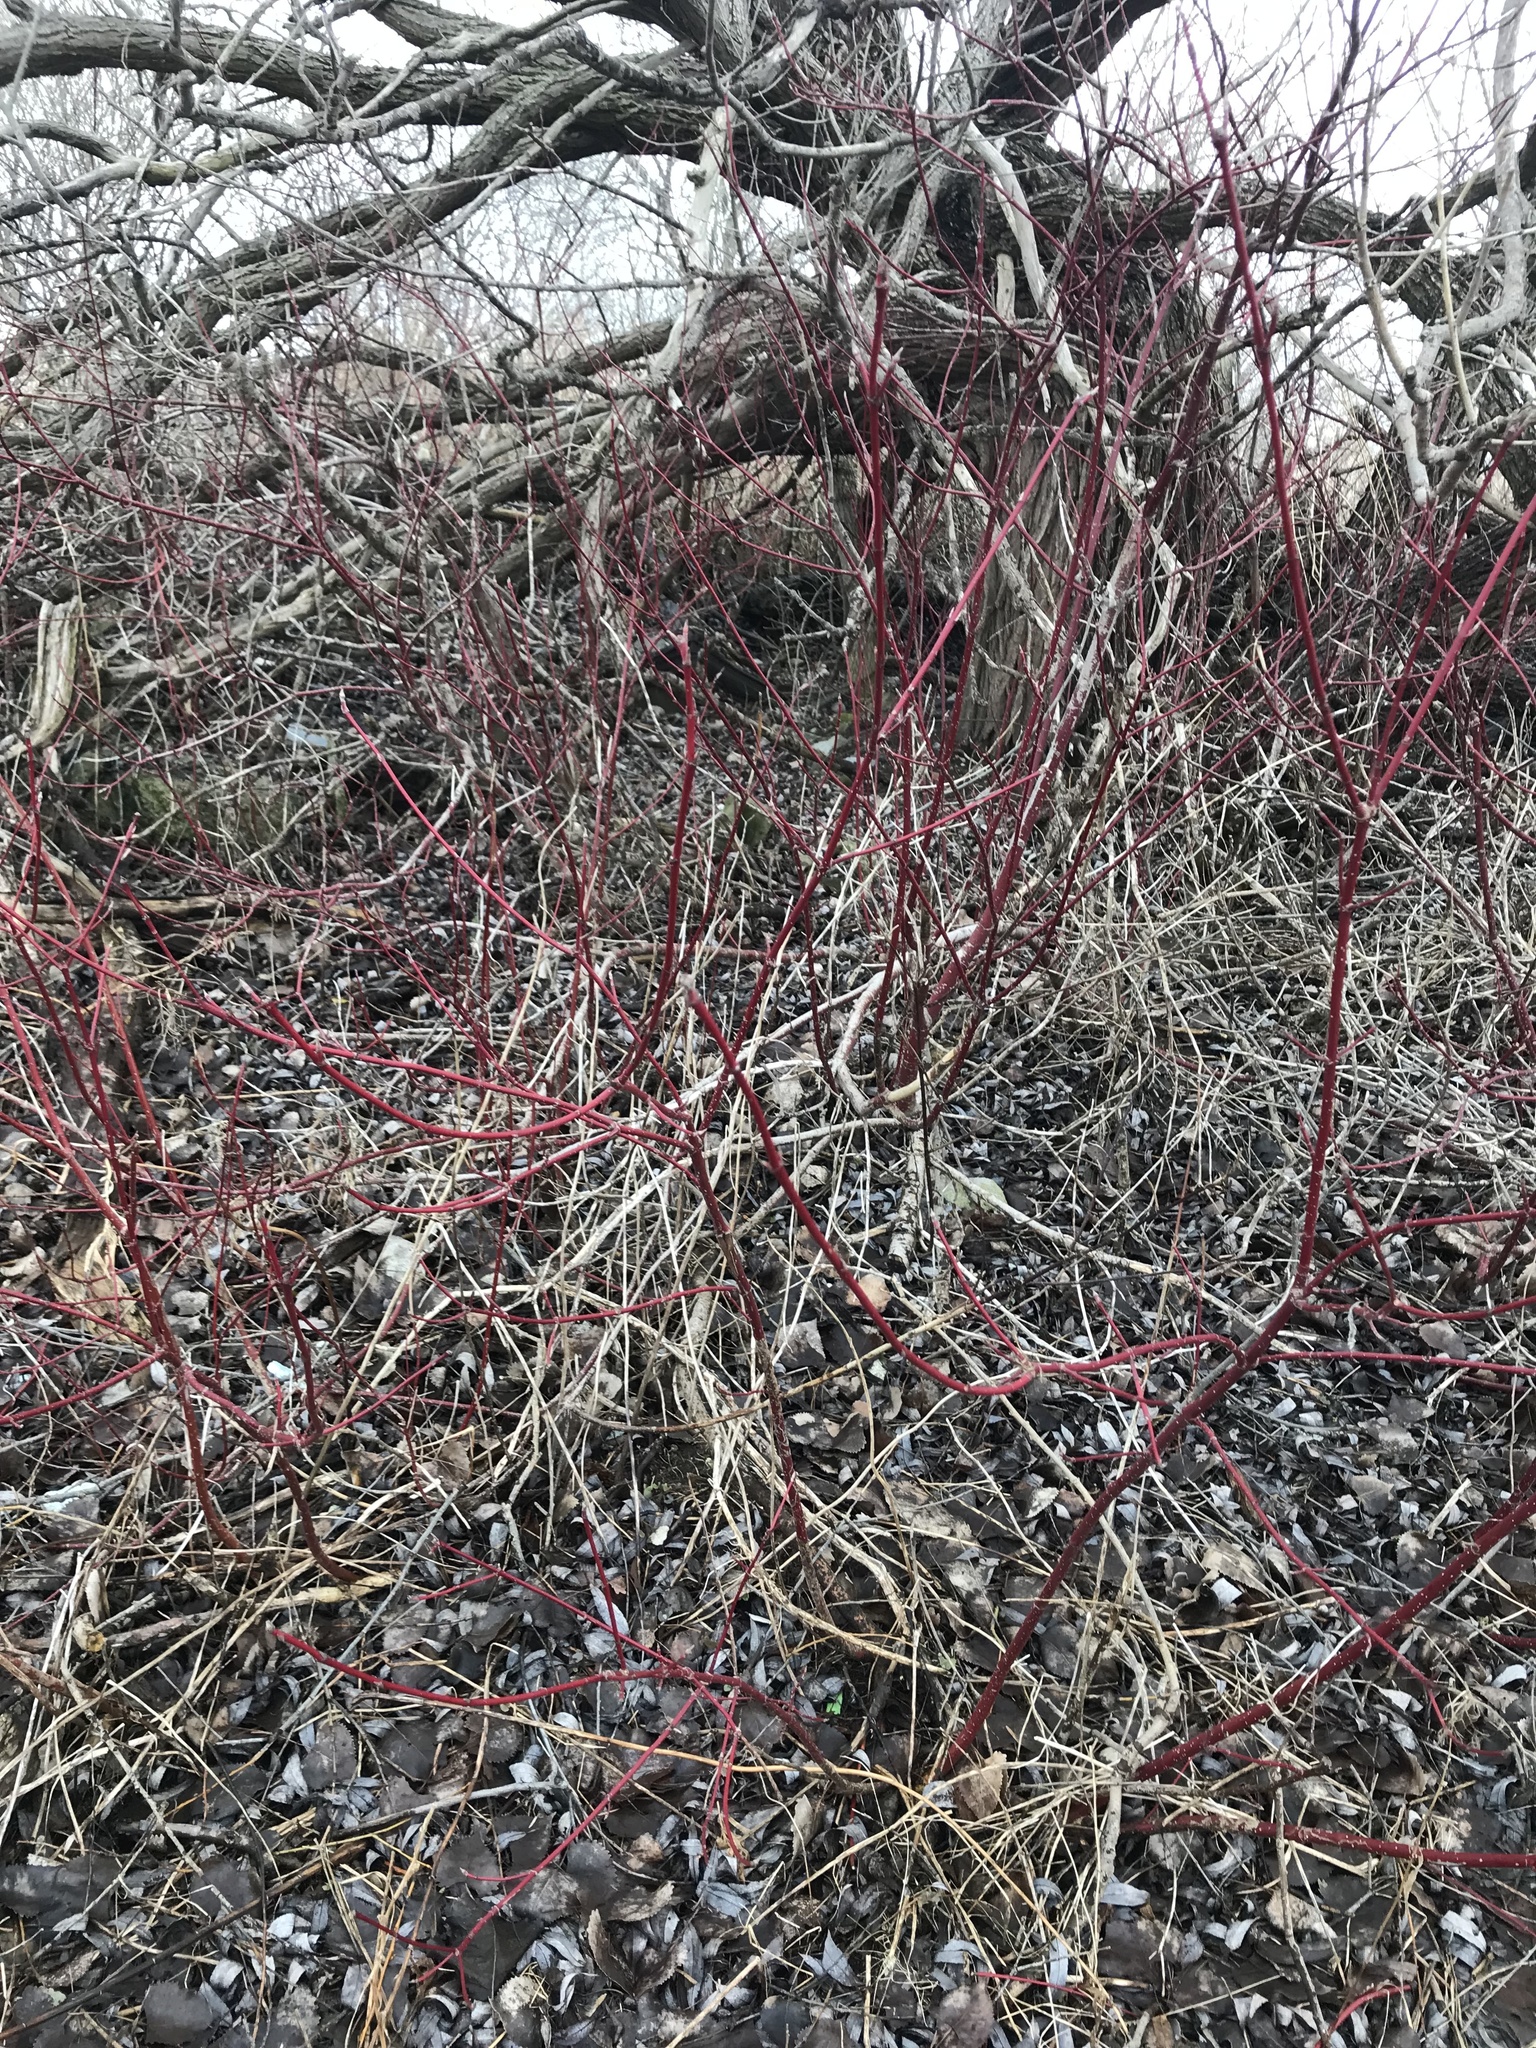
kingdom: Plantae
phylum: Tracheophyta
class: Magnoliopsida
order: Cornales
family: Cornaceae
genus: Cornus
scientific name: Cornus sericea
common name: Red-osier dogwood
